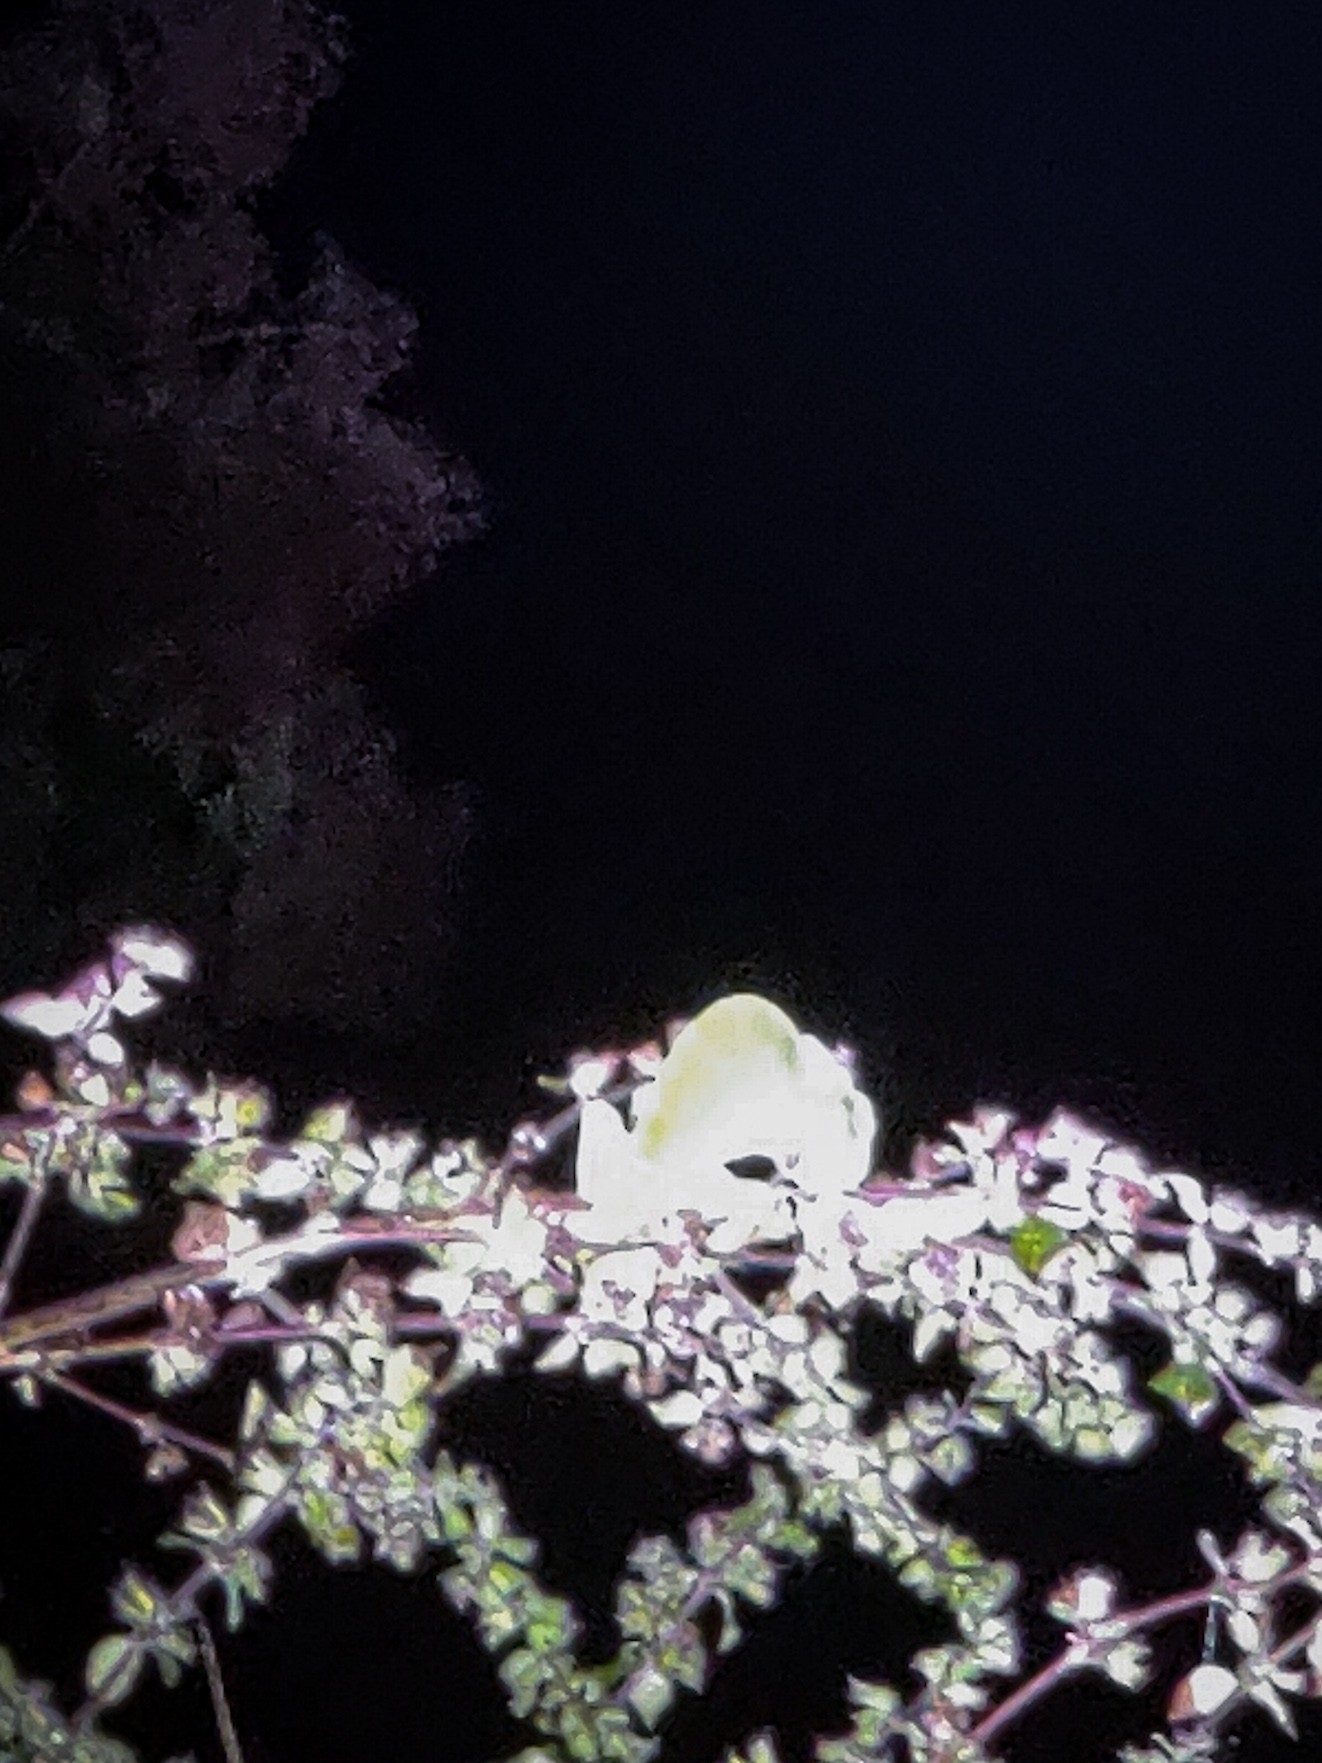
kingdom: Animalia
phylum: Chordata
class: Squamata
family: Chamaeleonidae
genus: Chamaeleo
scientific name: Chamaeleo zeylanicus
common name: Indian chameleon
